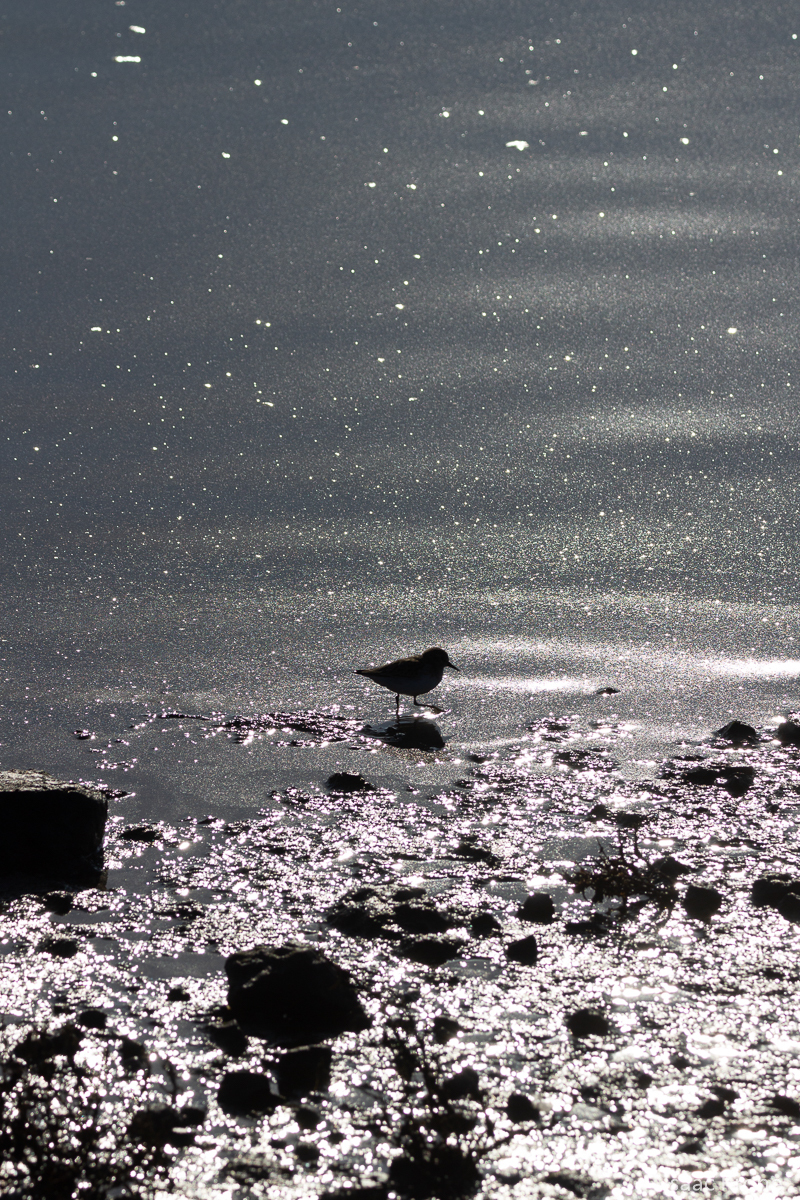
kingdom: Animalia
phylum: Chordata
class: Aves
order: Charadriiformes
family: Scolopacidae
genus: Calidris
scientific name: Calidris minutilla
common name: Least sandpiper
